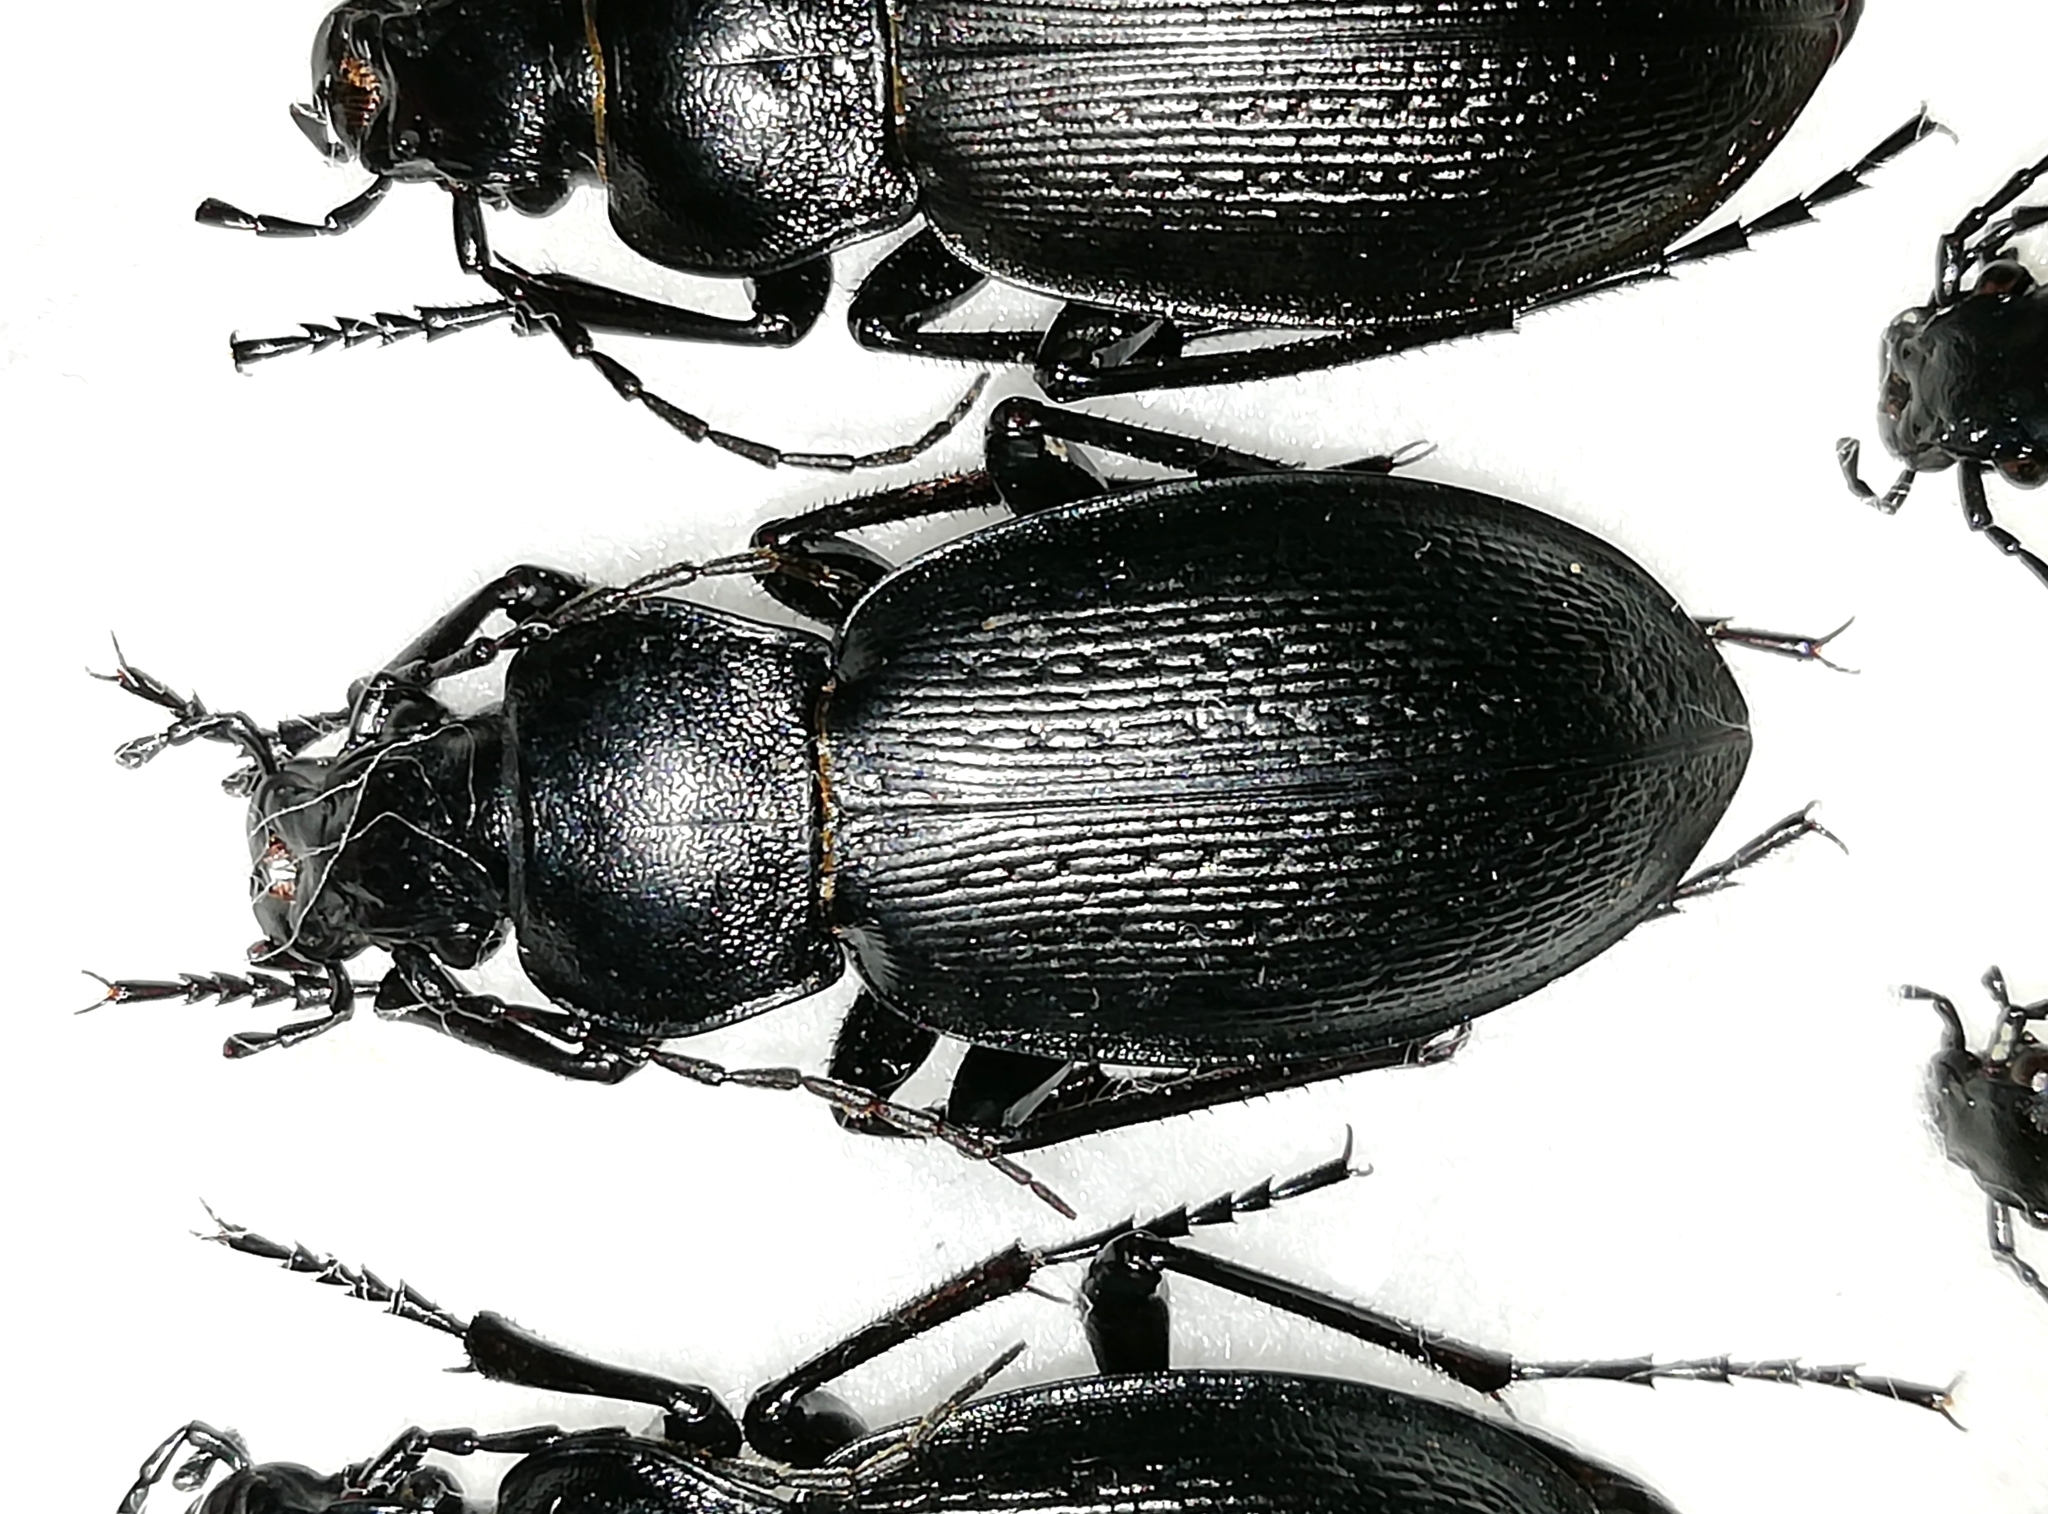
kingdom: Animalia
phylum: Arthropoda
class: Insecta
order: Coleoptera
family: Carabidae
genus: Carabus
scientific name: Carabus spasskianus
